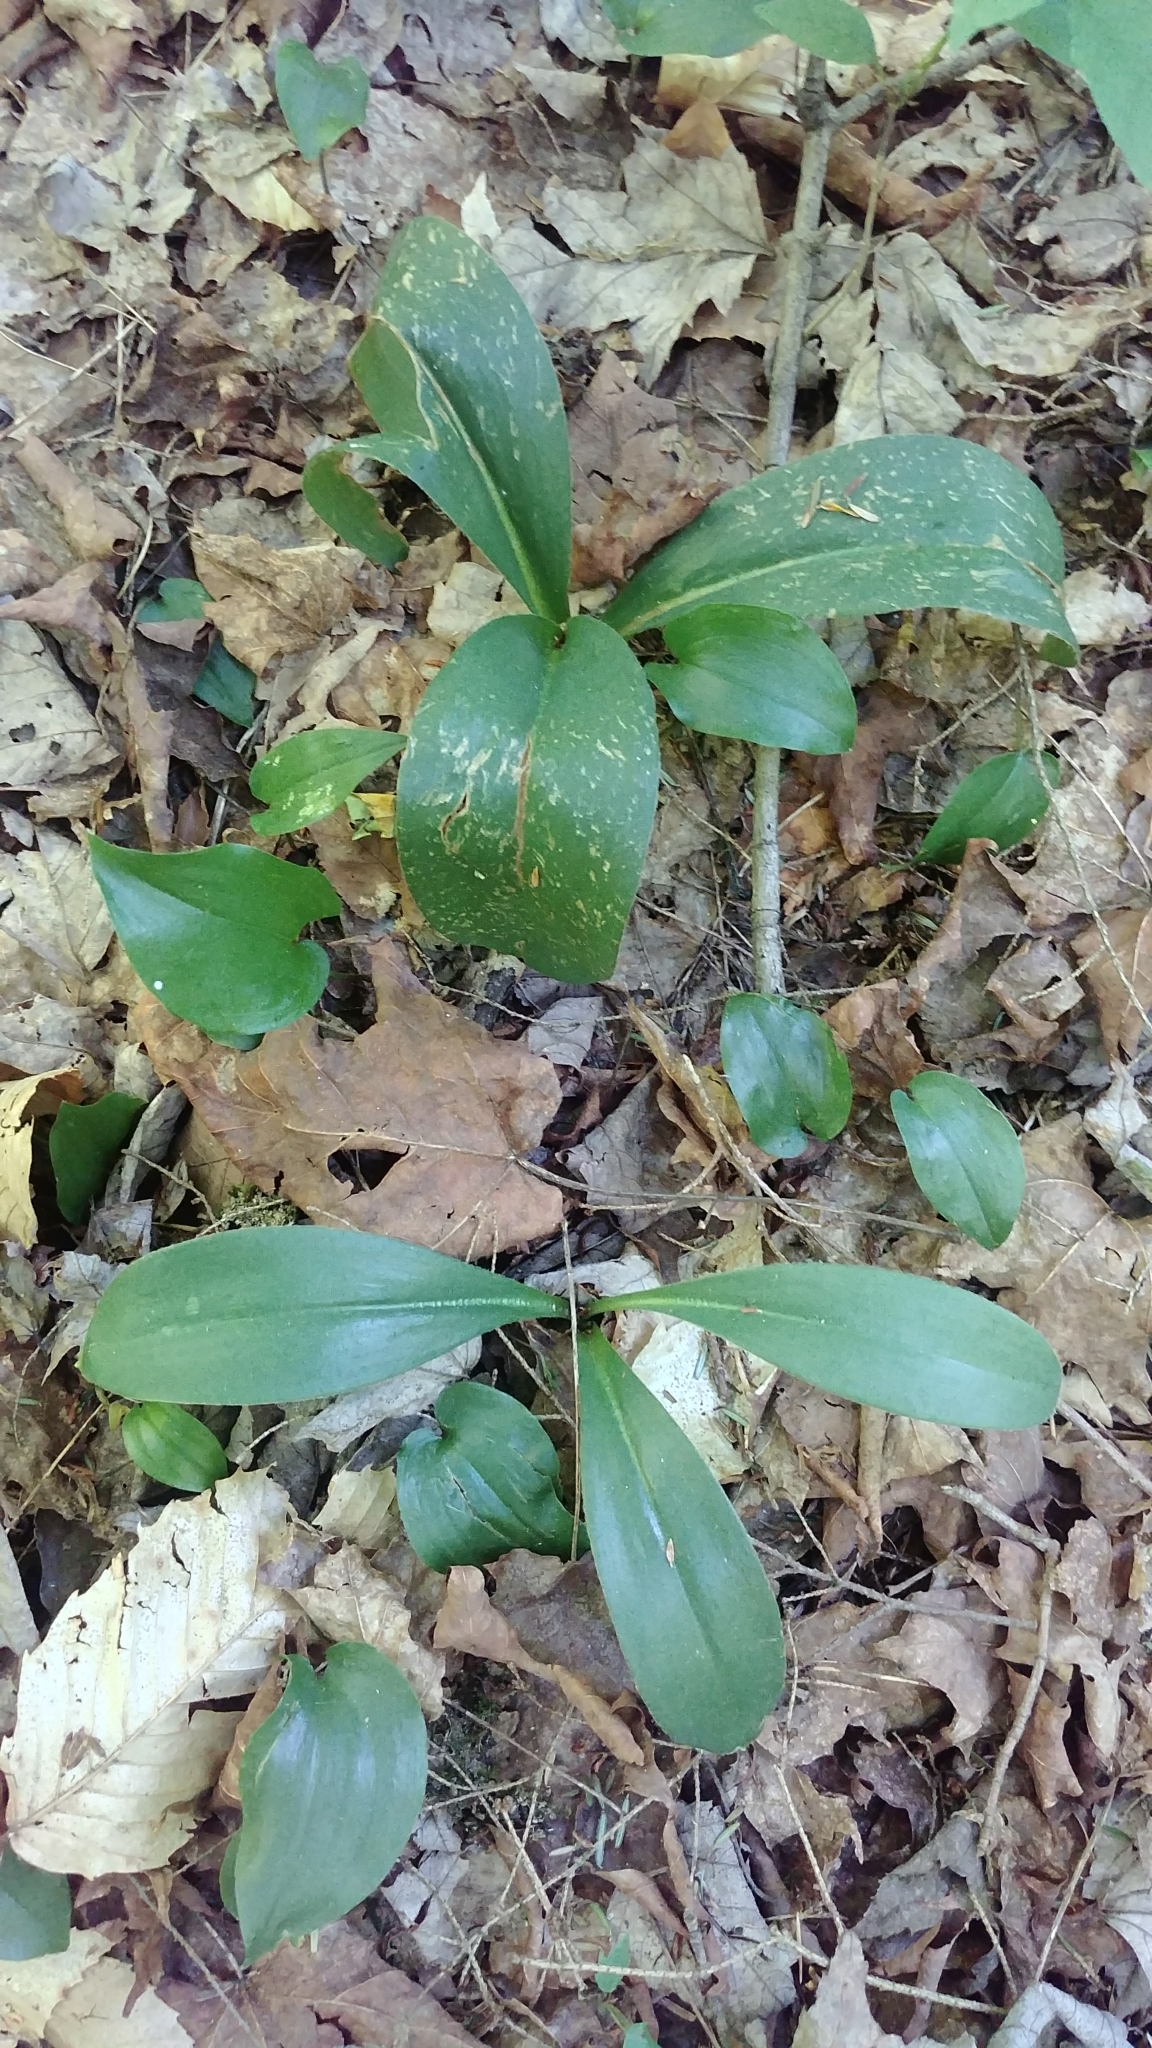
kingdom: Plantae
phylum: Tracheophyta
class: Liliopsida
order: Liliales
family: Liliaceae
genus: Clintonia
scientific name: Clintonia borealis
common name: Yellow clintonia
